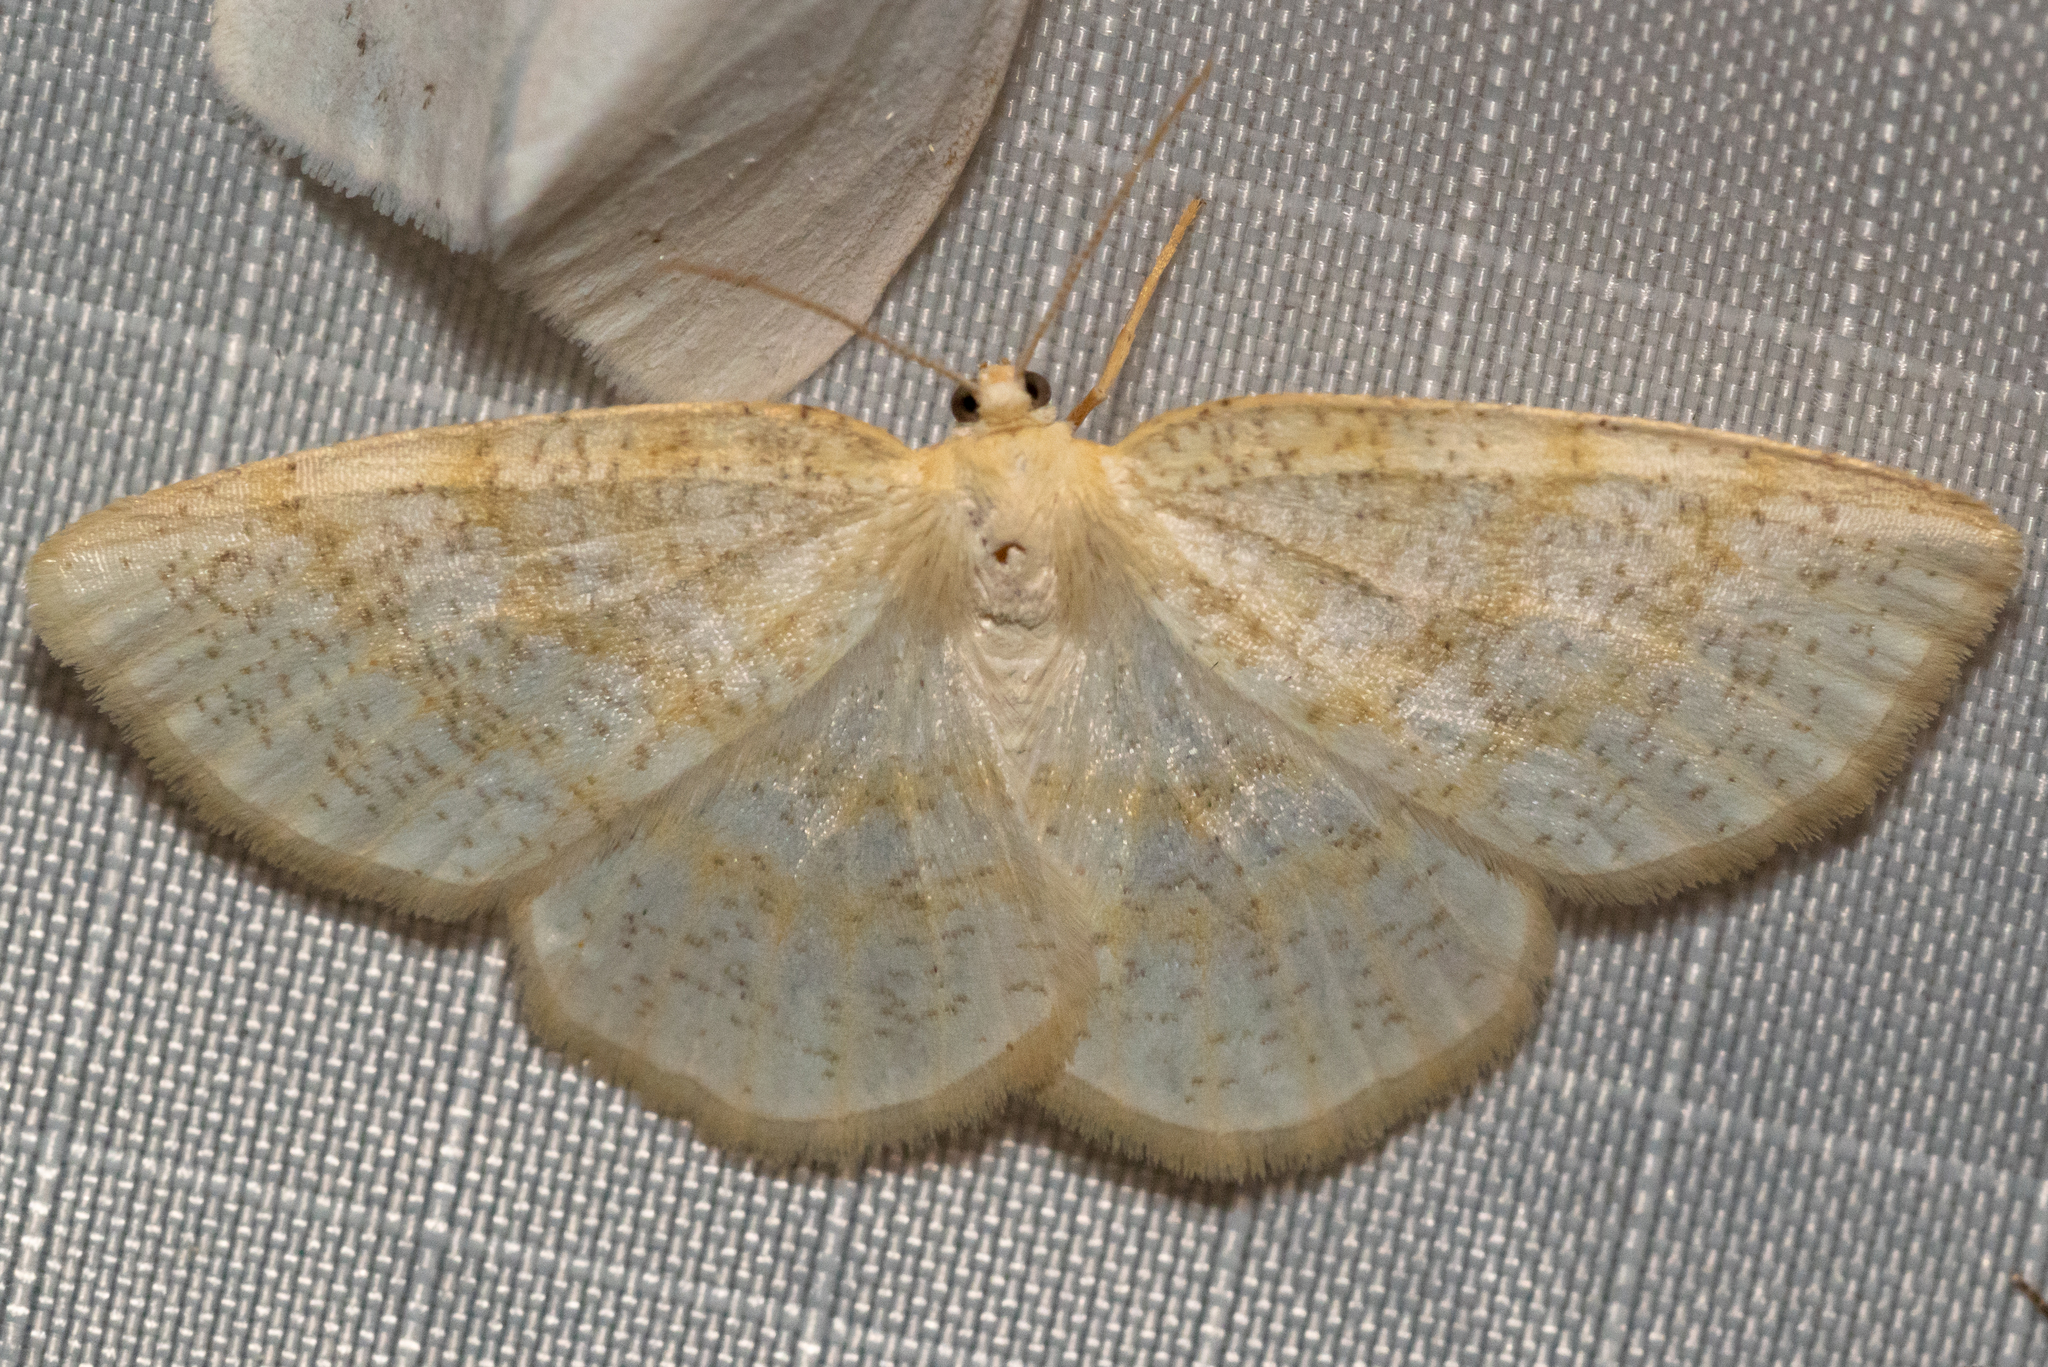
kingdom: Animalia
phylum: Arthropoda
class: Insecta
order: Lepidoptera
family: Geometridae
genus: Cabera
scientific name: Cabera erythemaria
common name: Yellow-dusted cream moth
